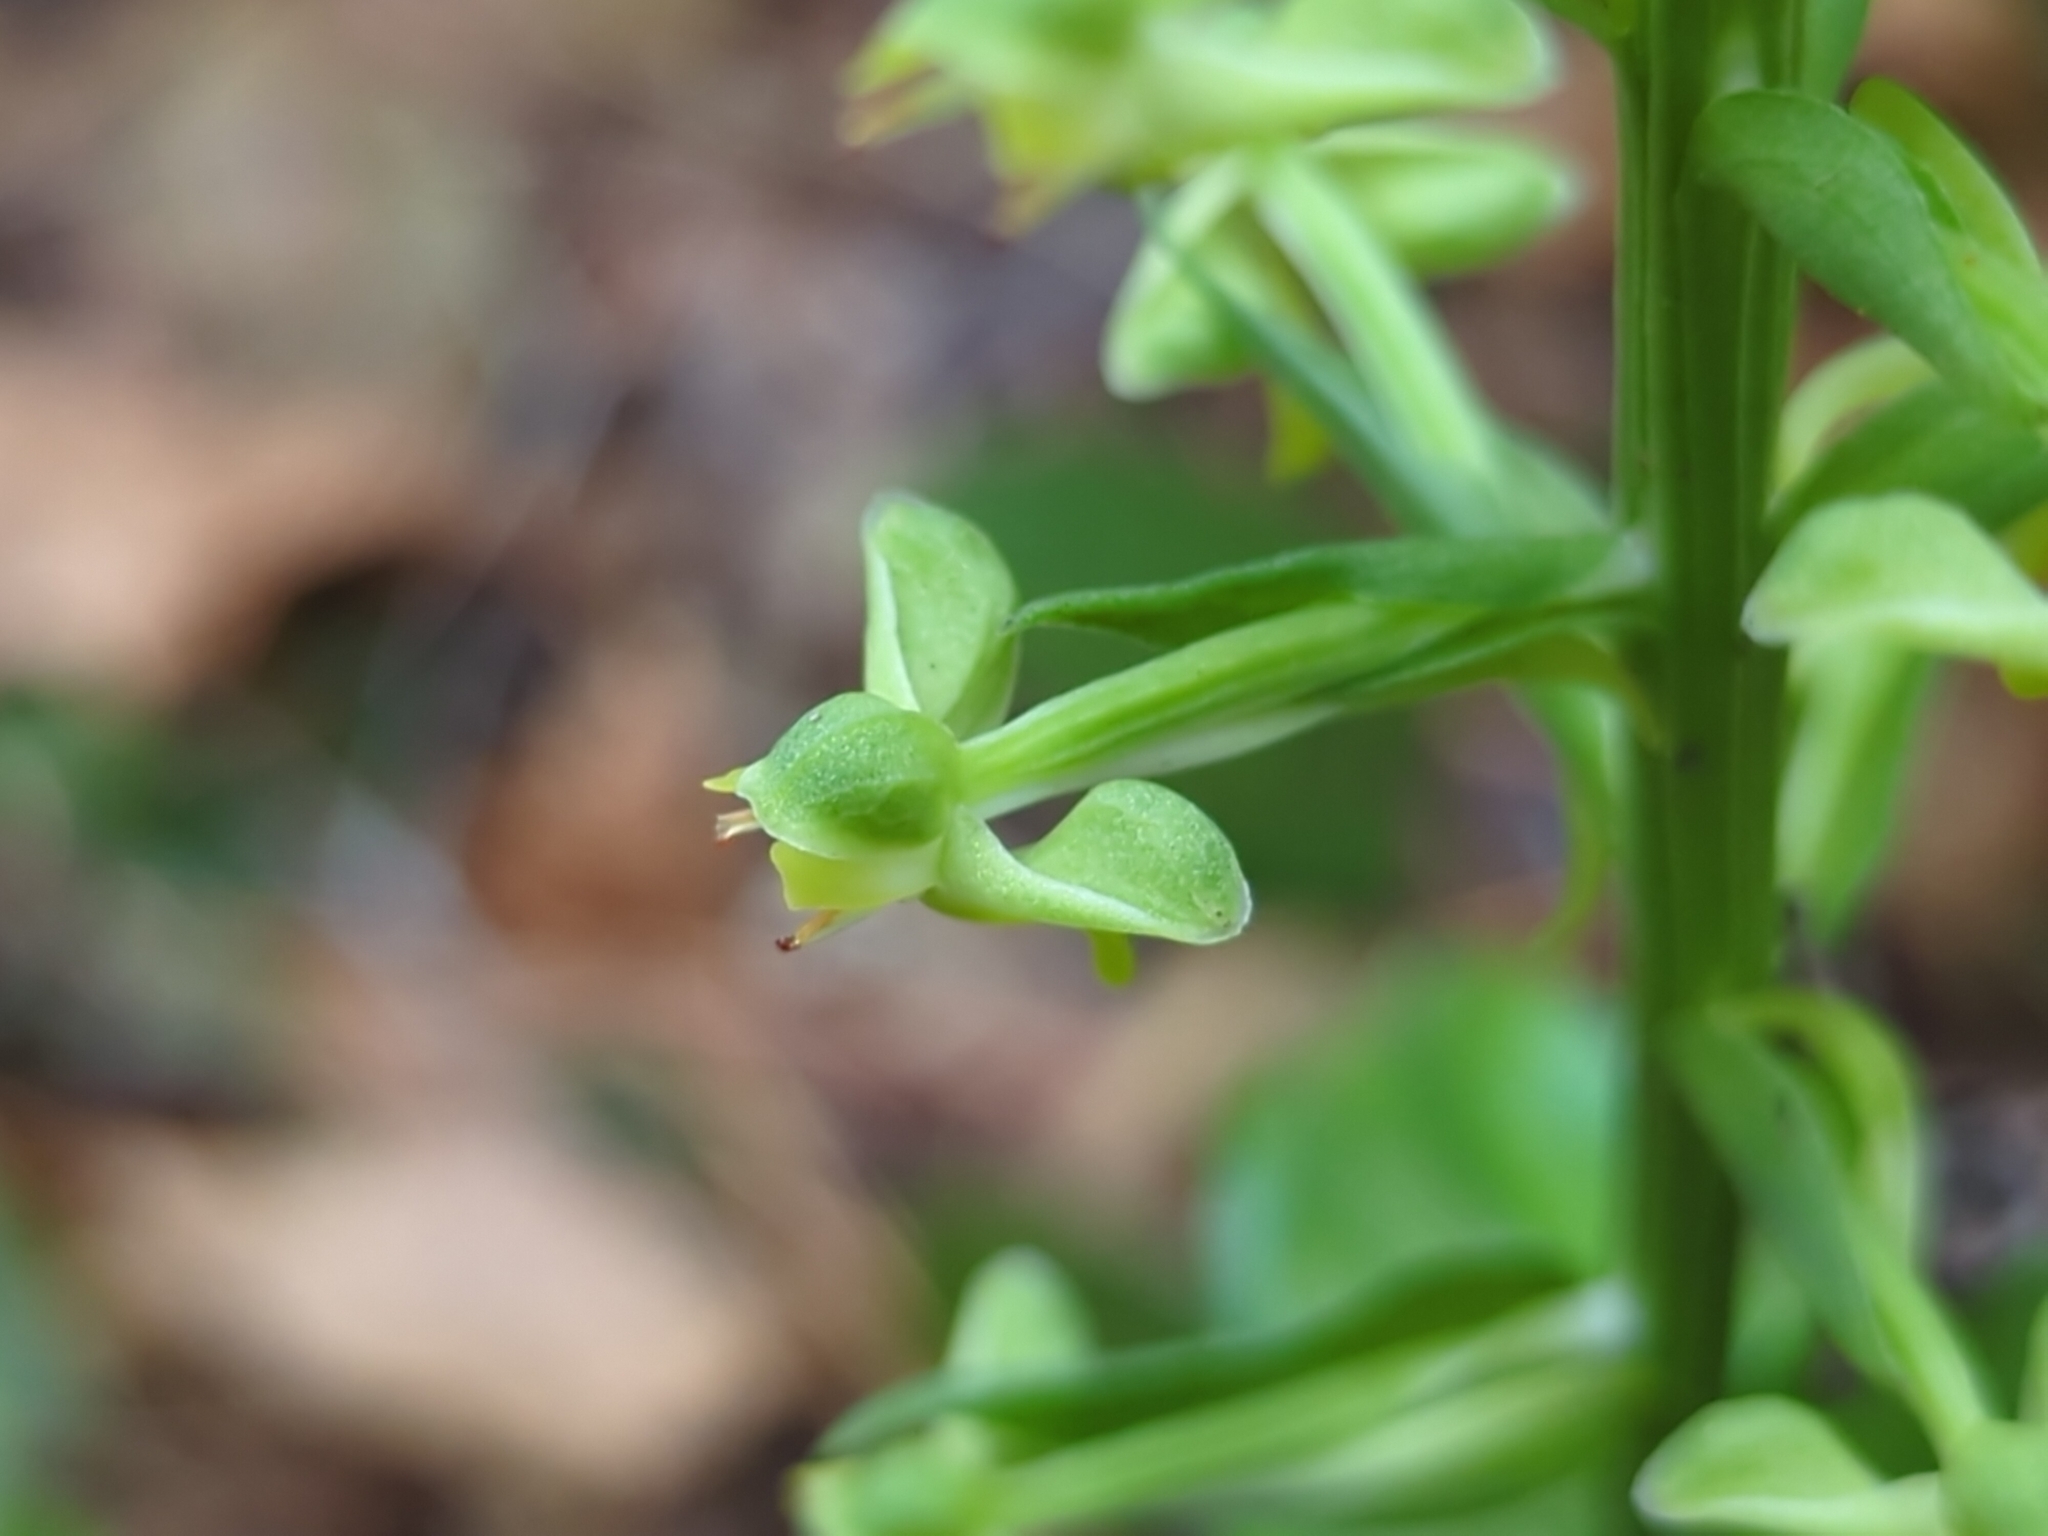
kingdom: Plantae
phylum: Tracheophyta
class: Liliopsida
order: Asparagales
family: Orchidaceae
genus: Habenaria
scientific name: Habenaria floribunda
